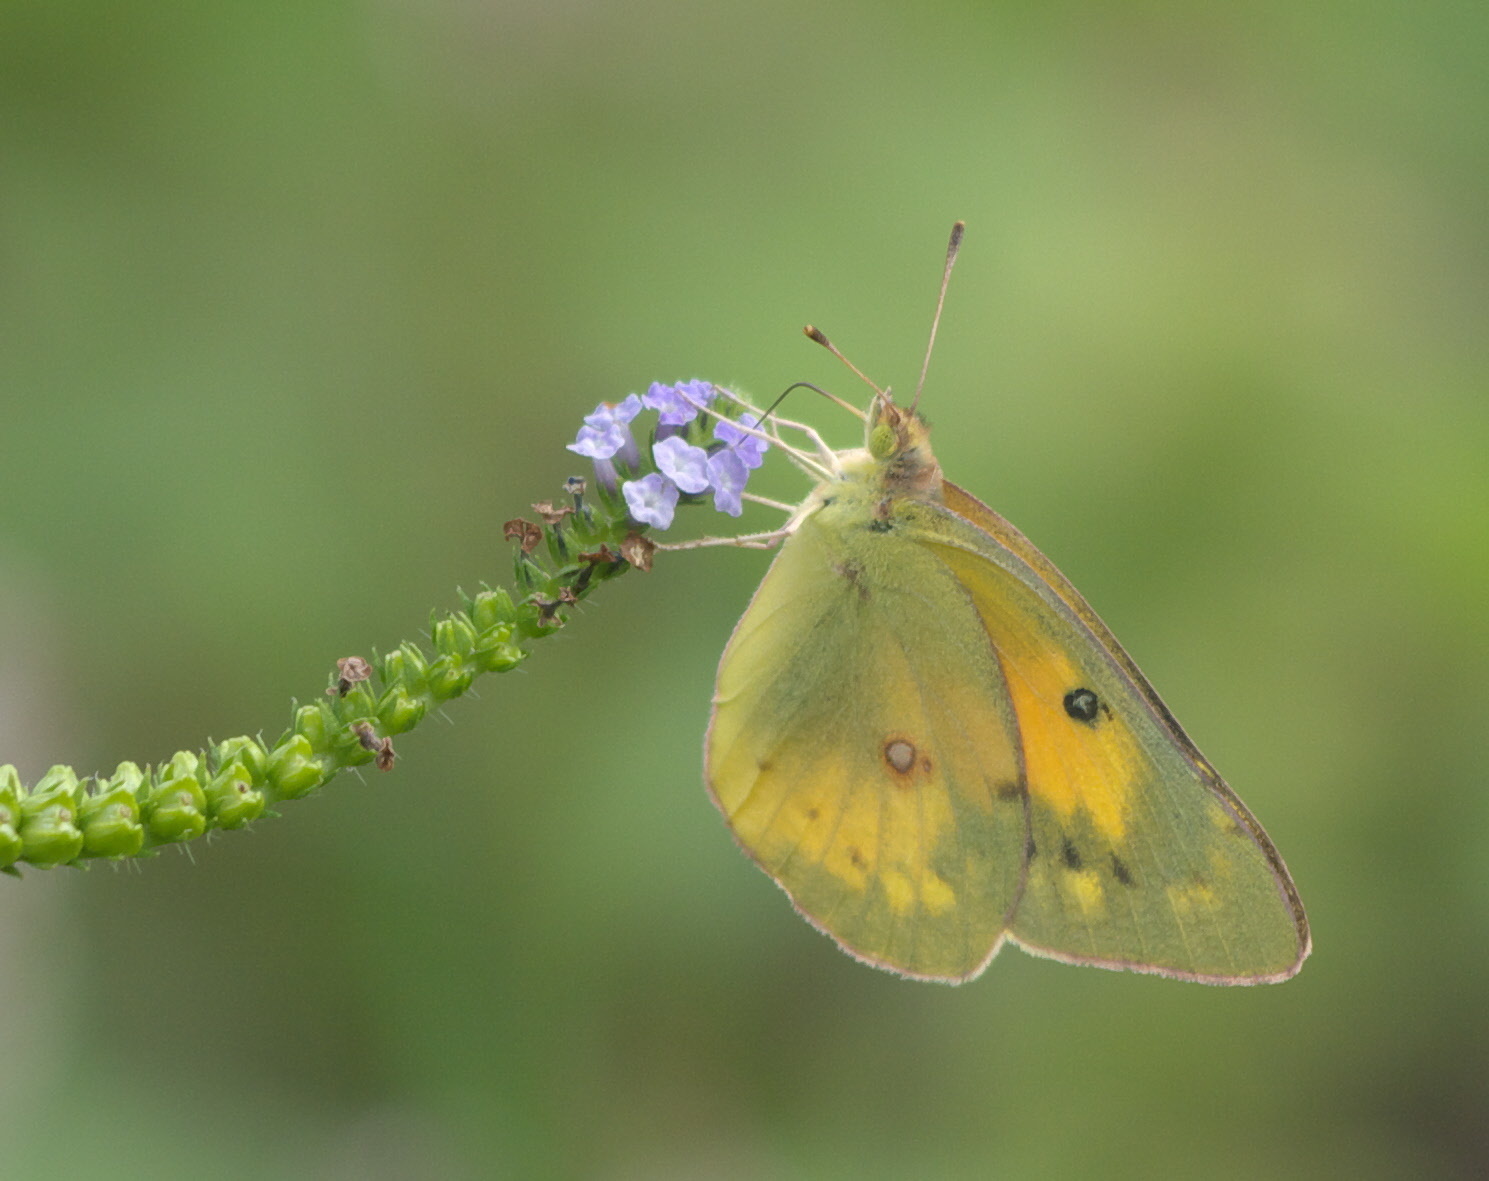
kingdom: Animalia
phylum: Arthropoda
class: Insecta
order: Lepidoptera
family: Pieridae
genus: Colias
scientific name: Colias eurytheme
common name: Alfalfa butterfly
